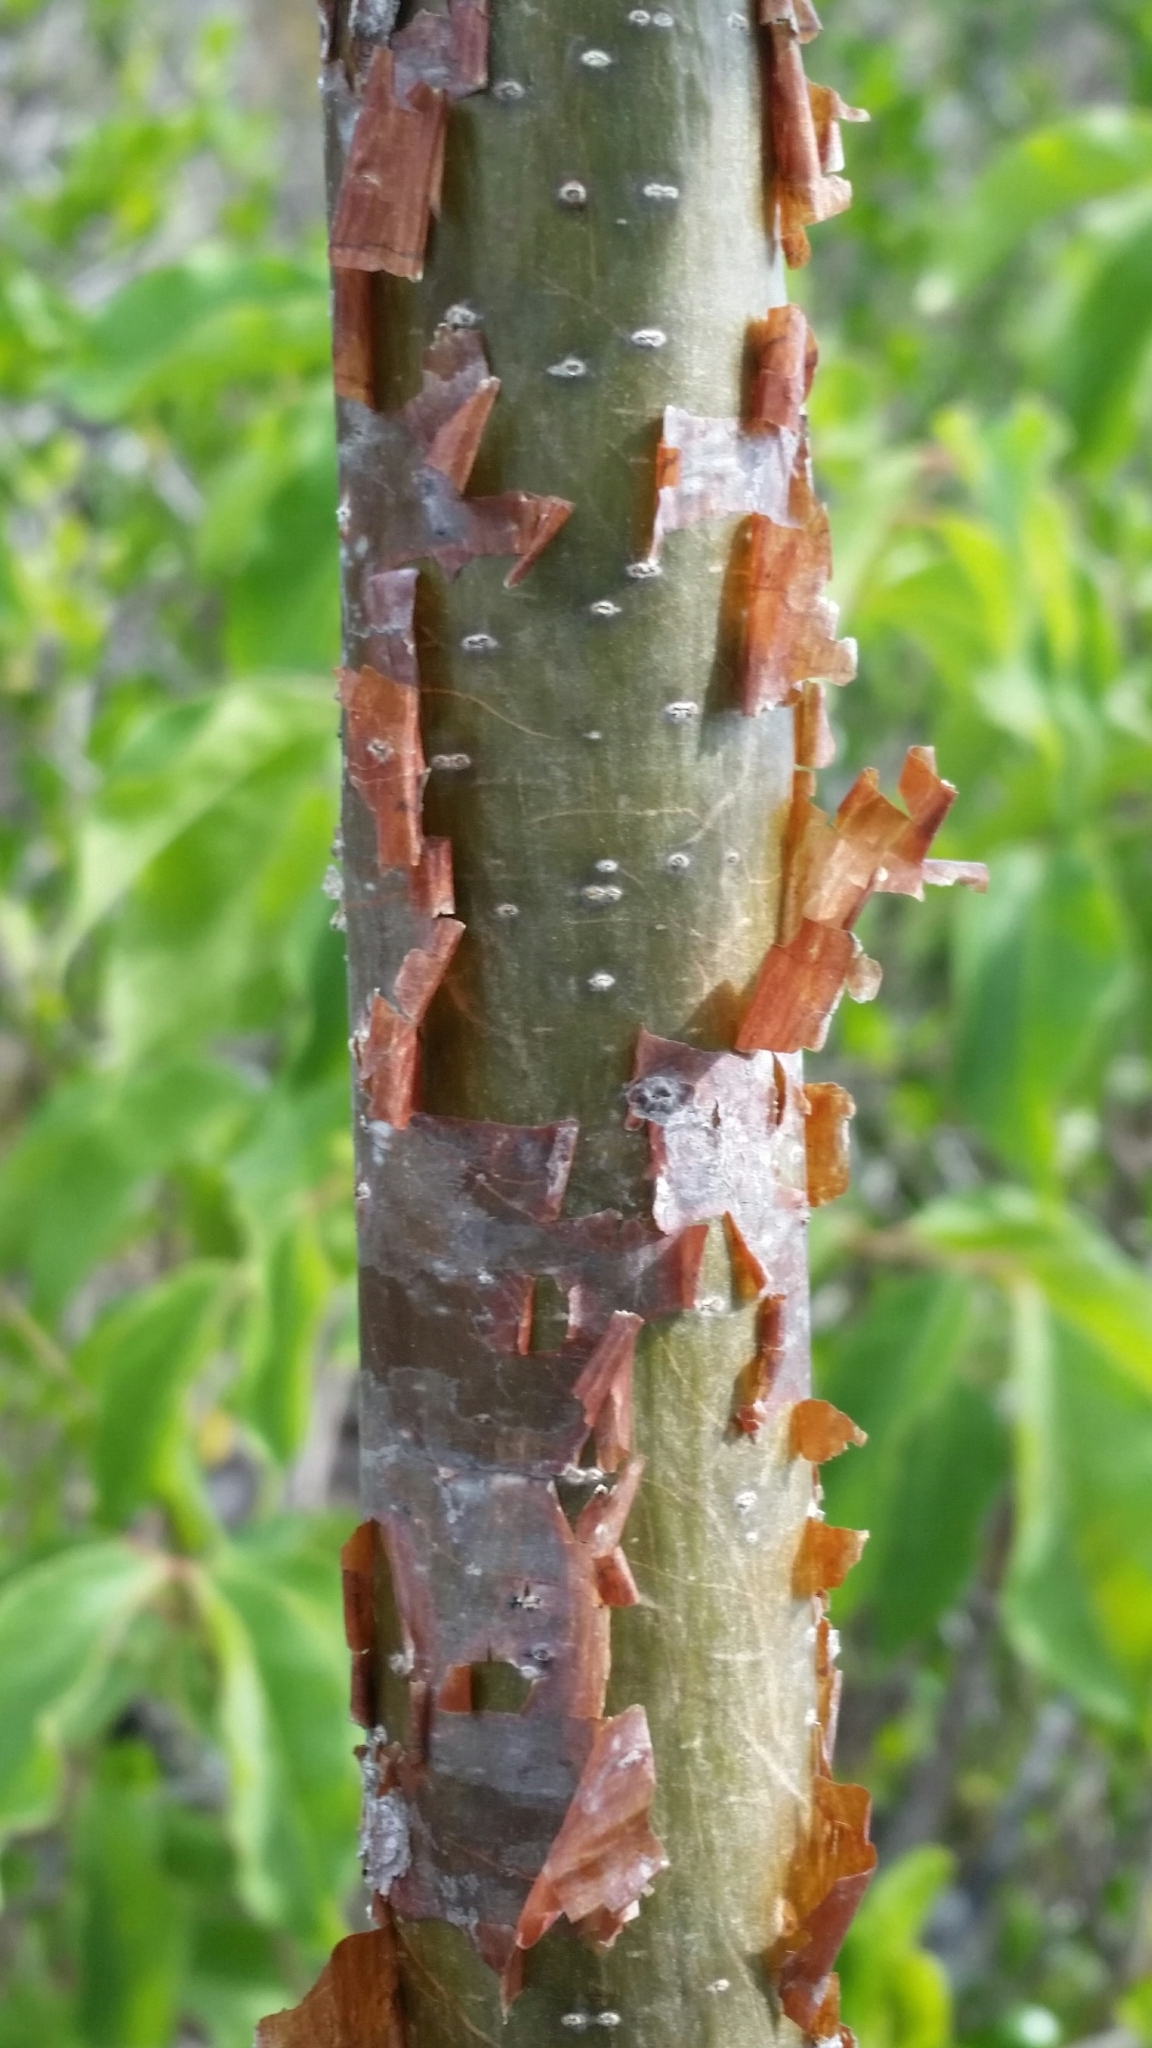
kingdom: Plantae
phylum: Tracheophyta
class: Magnoliopsida
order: Sapindales
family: Burseraceae
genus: Bursera
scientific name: Bursera simaruba
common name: Turpentine tree
